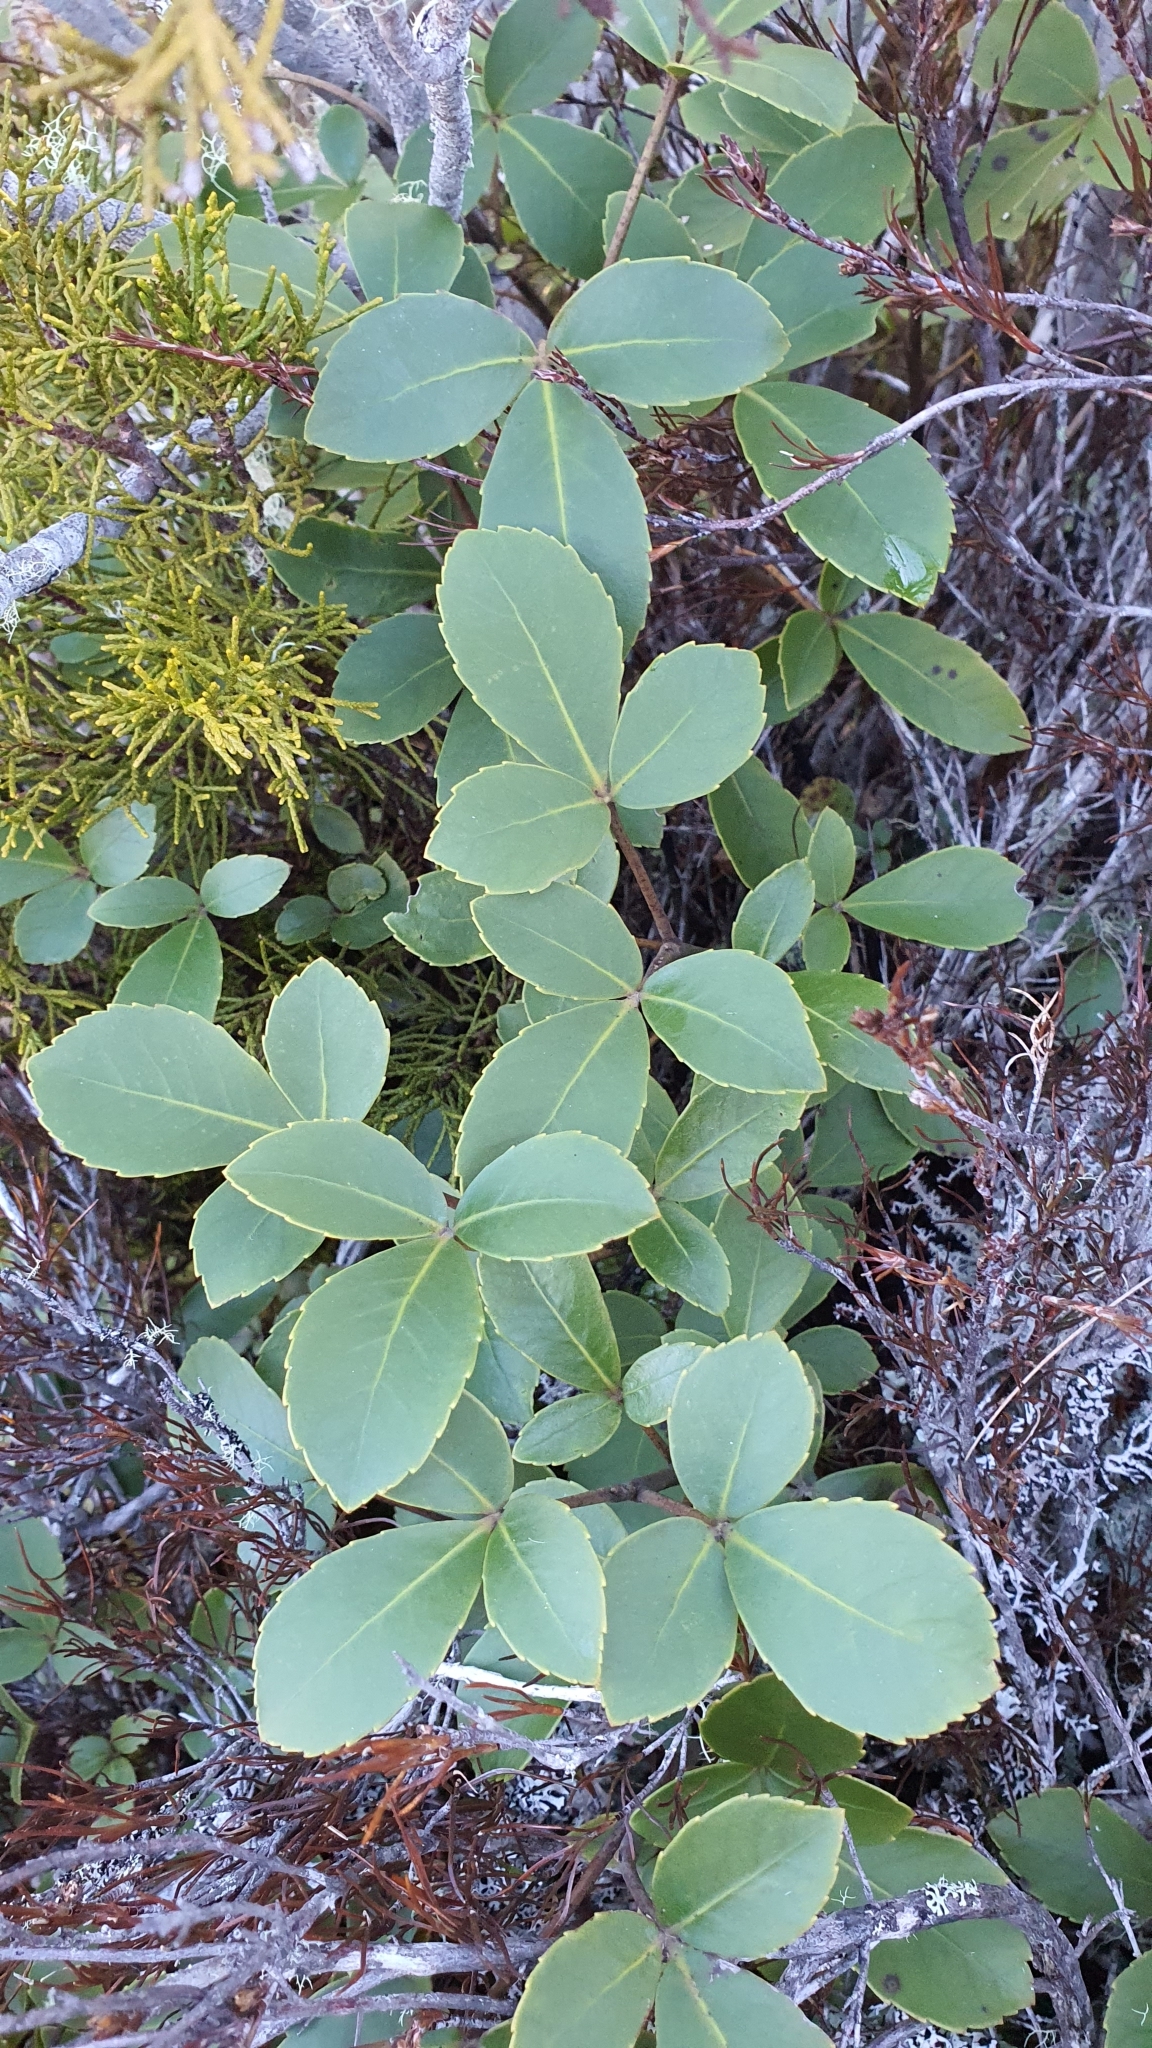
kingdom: Plantae
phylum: Tracheophyta
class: Magnoliopsida
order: Apiales
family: Araliaceae
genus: Neopanax
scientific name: Neopanax colensoi
